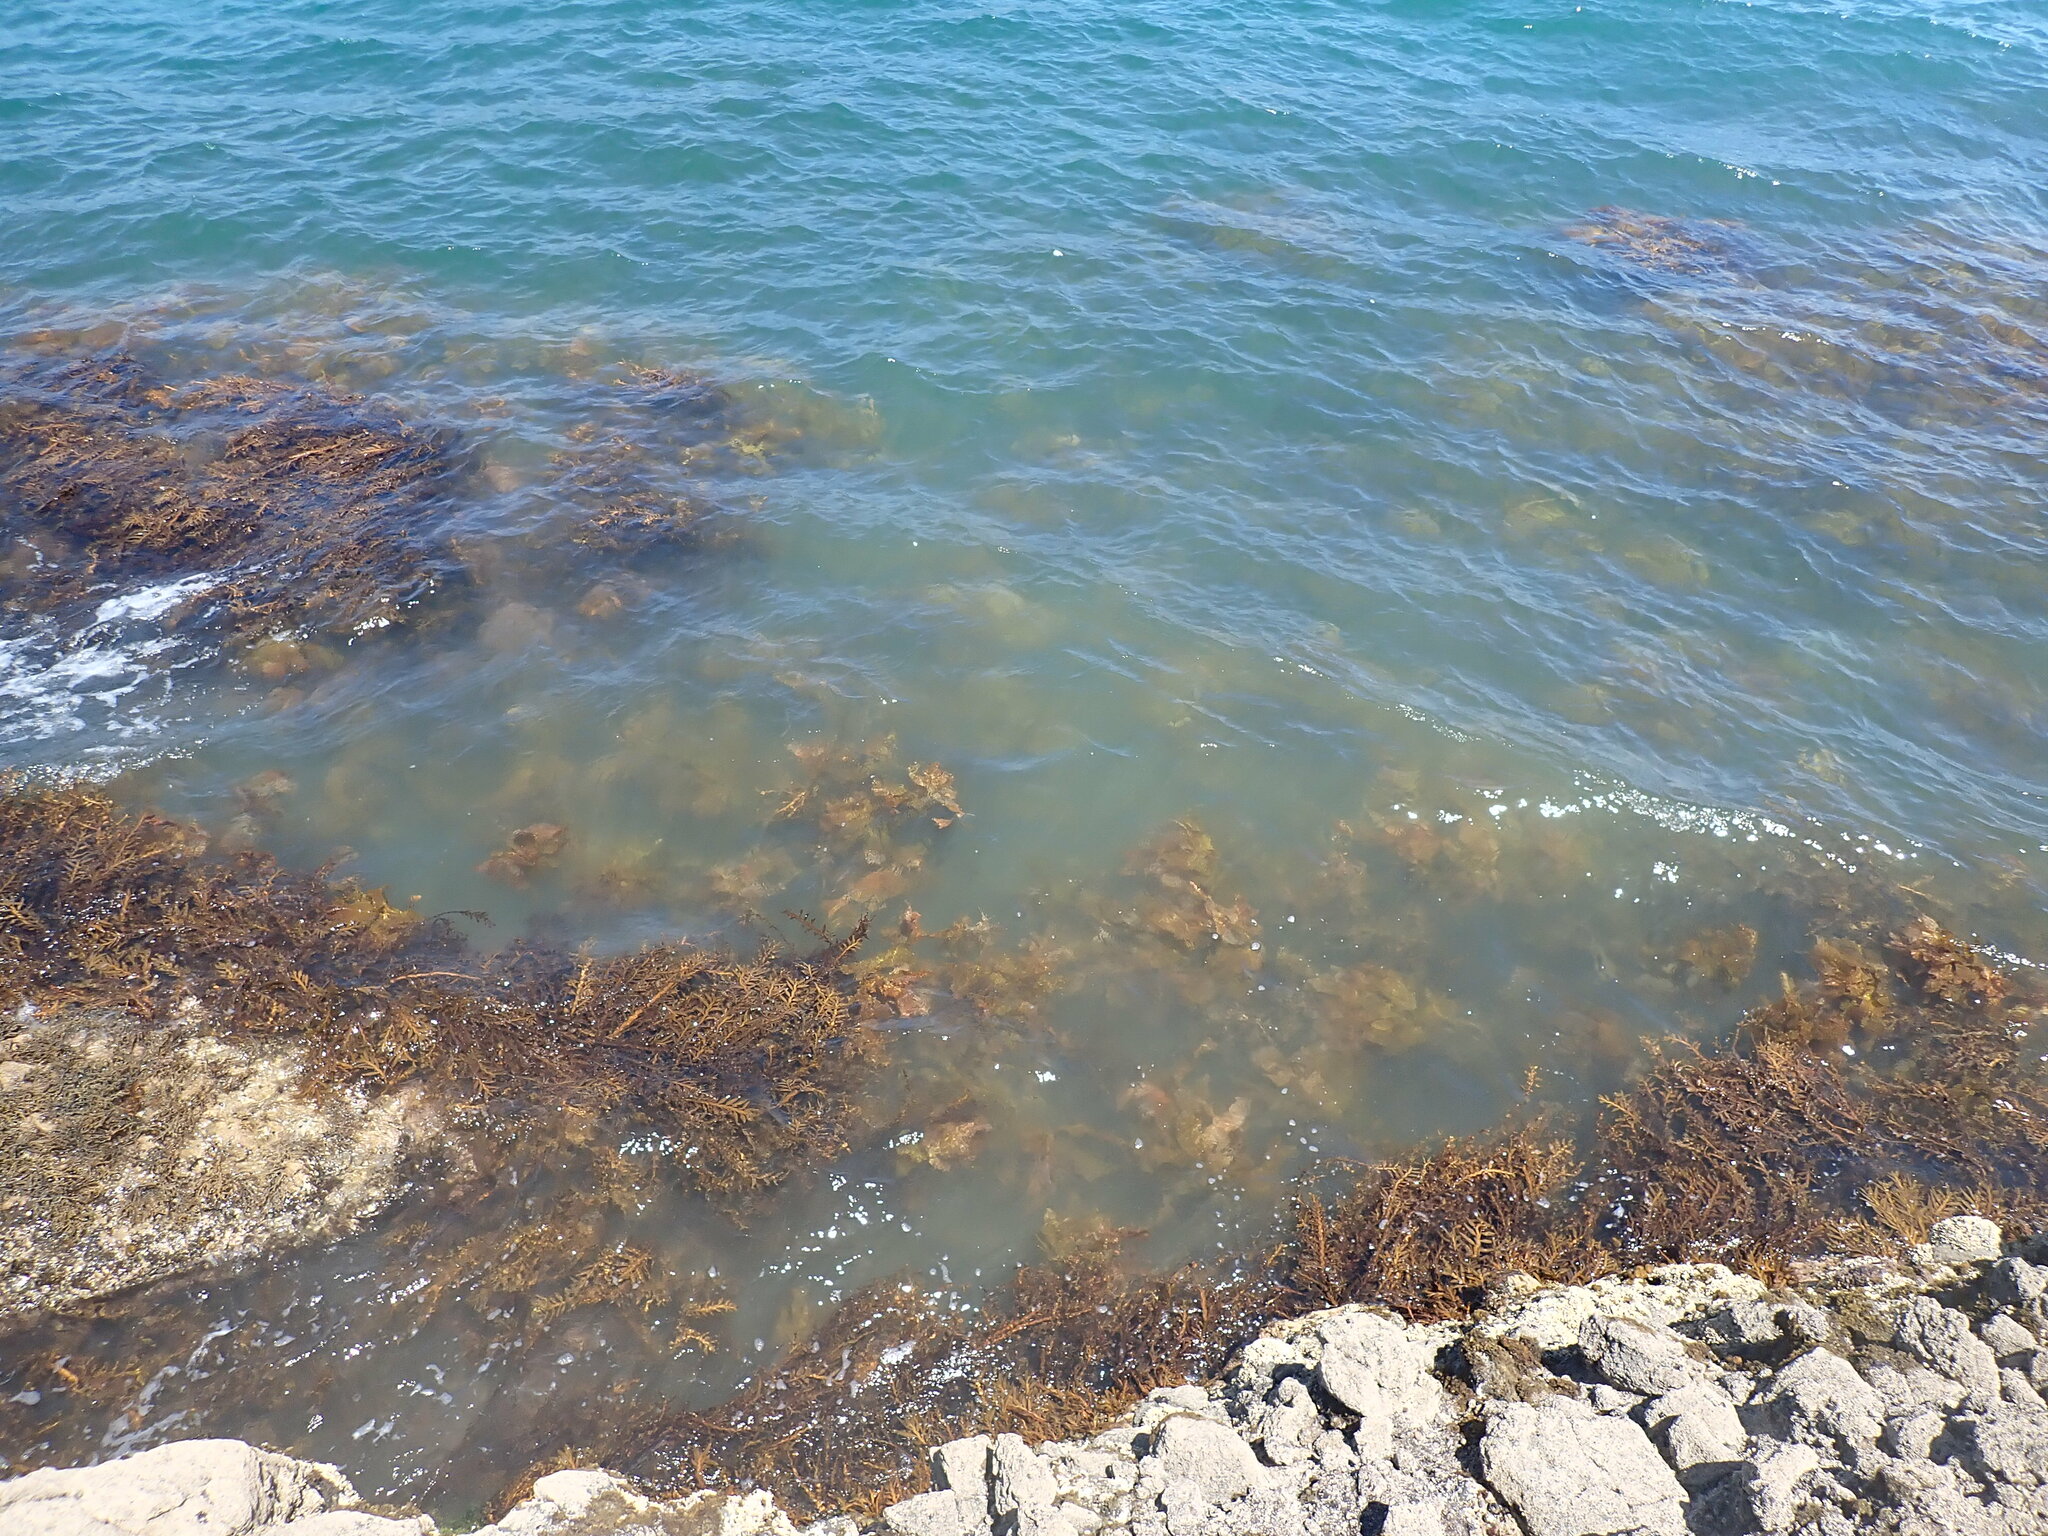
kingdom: Chromista
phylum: Ochrophyta
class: Phaeophyceae
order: Laminariales
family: Lessoniaceae
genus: Ecklonia
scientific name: Ecklonia radiata
